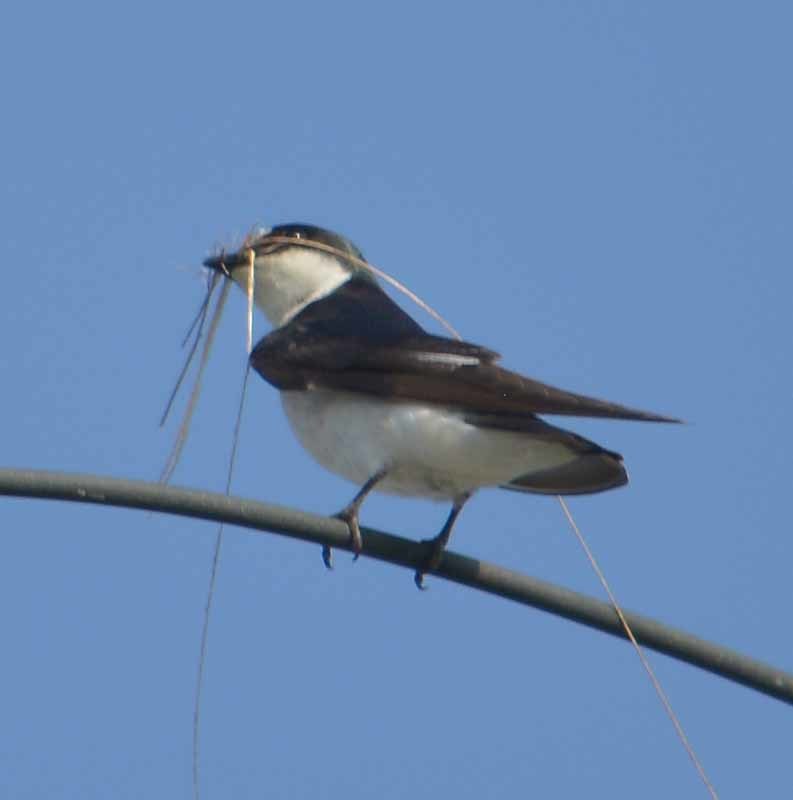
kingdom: Animalia
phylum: Chordata
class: Aves
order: Passeriformes
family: Hirundinidae
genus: Tachycineta
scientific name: Tachycineta albilinea
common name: Mangrove swallow
